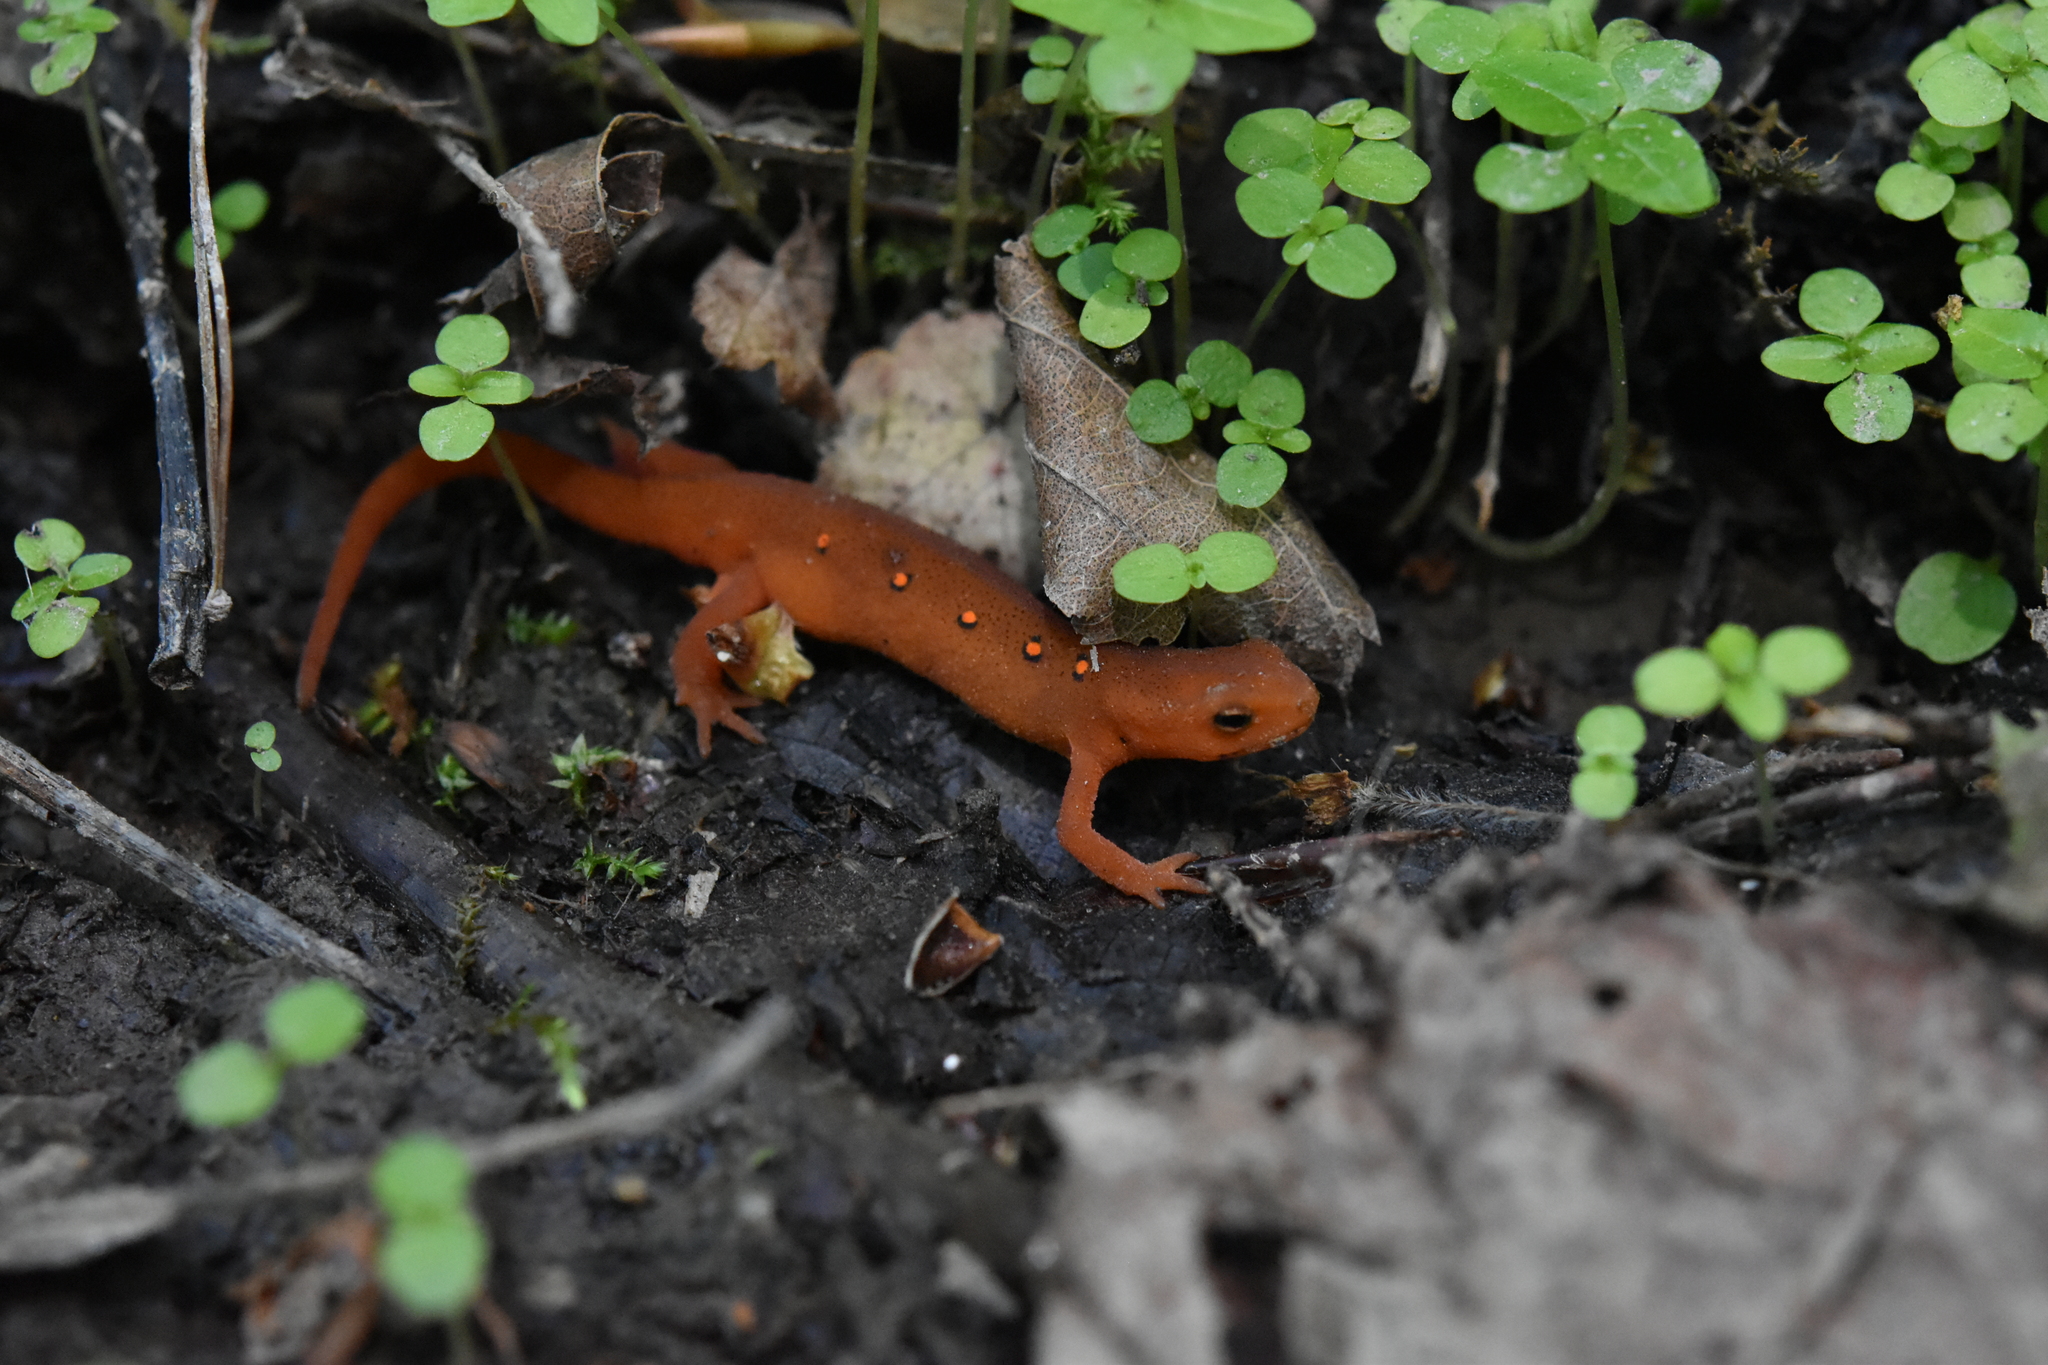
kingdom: Animalia
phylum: Chordata
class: Amphibia
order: Caudata
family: Salamandridae
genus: Notophthalmus
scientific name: Notophthalmus viridescens
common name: Eastern newt
